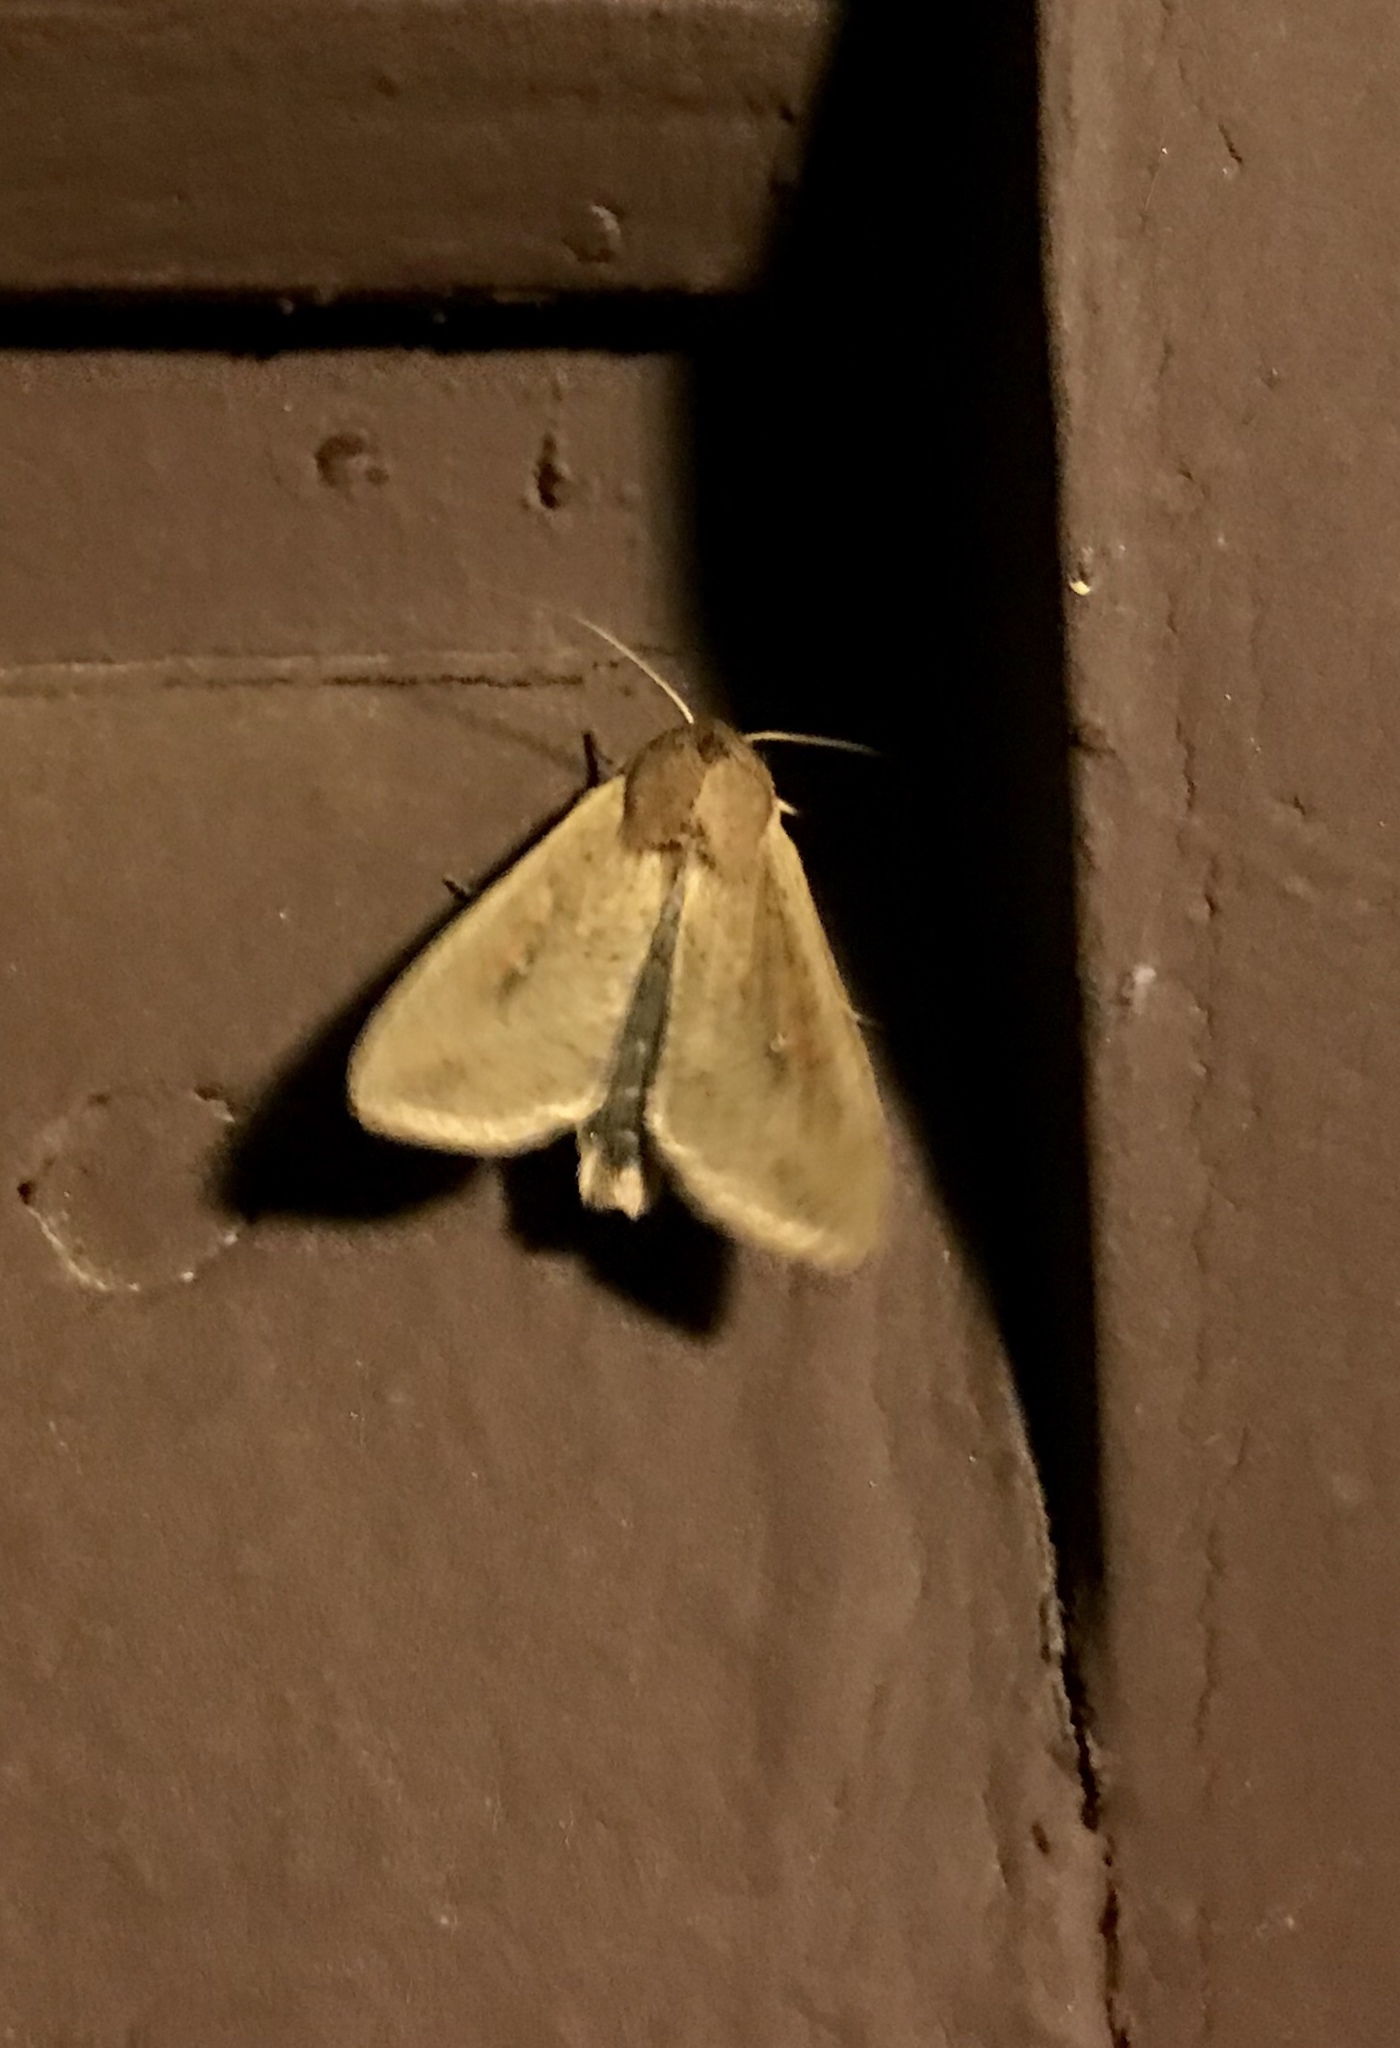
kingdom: Animalia
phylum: Arthropoda
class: Insecta
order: Lepidoptera
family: Noctuidae
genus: Mythimna
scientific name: Mythimna unipuncta
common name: White-speck
